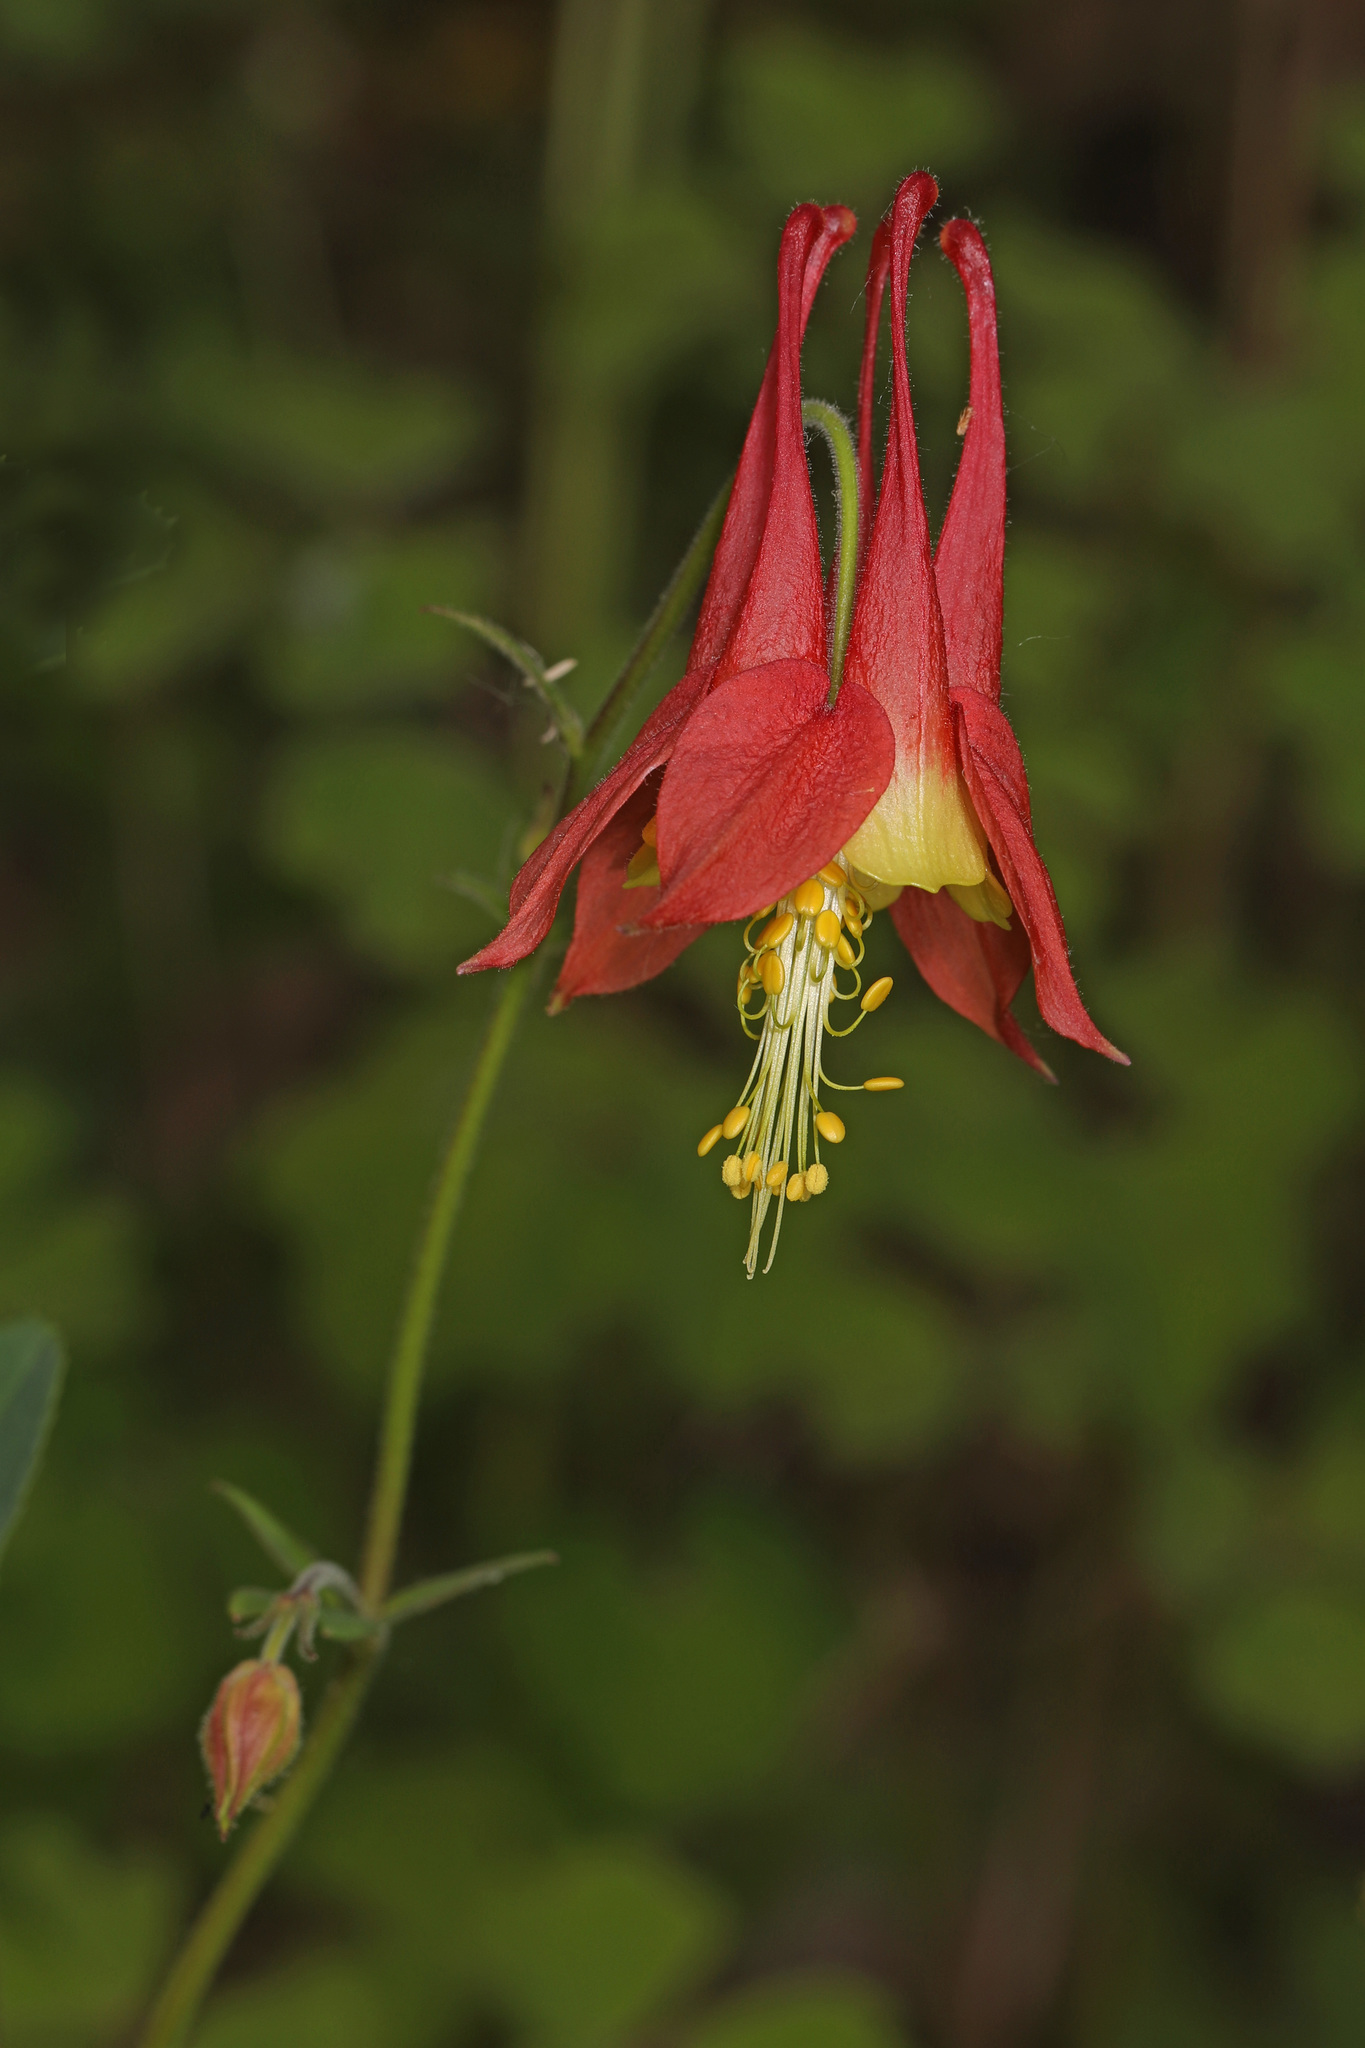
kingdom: Plantae
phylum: Tracheophyta
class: Magnoliopsida
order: Ranunculales
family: Ranunculaceae
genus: Aquilegia
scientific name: Aquilegia canadensis
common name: American columbine
